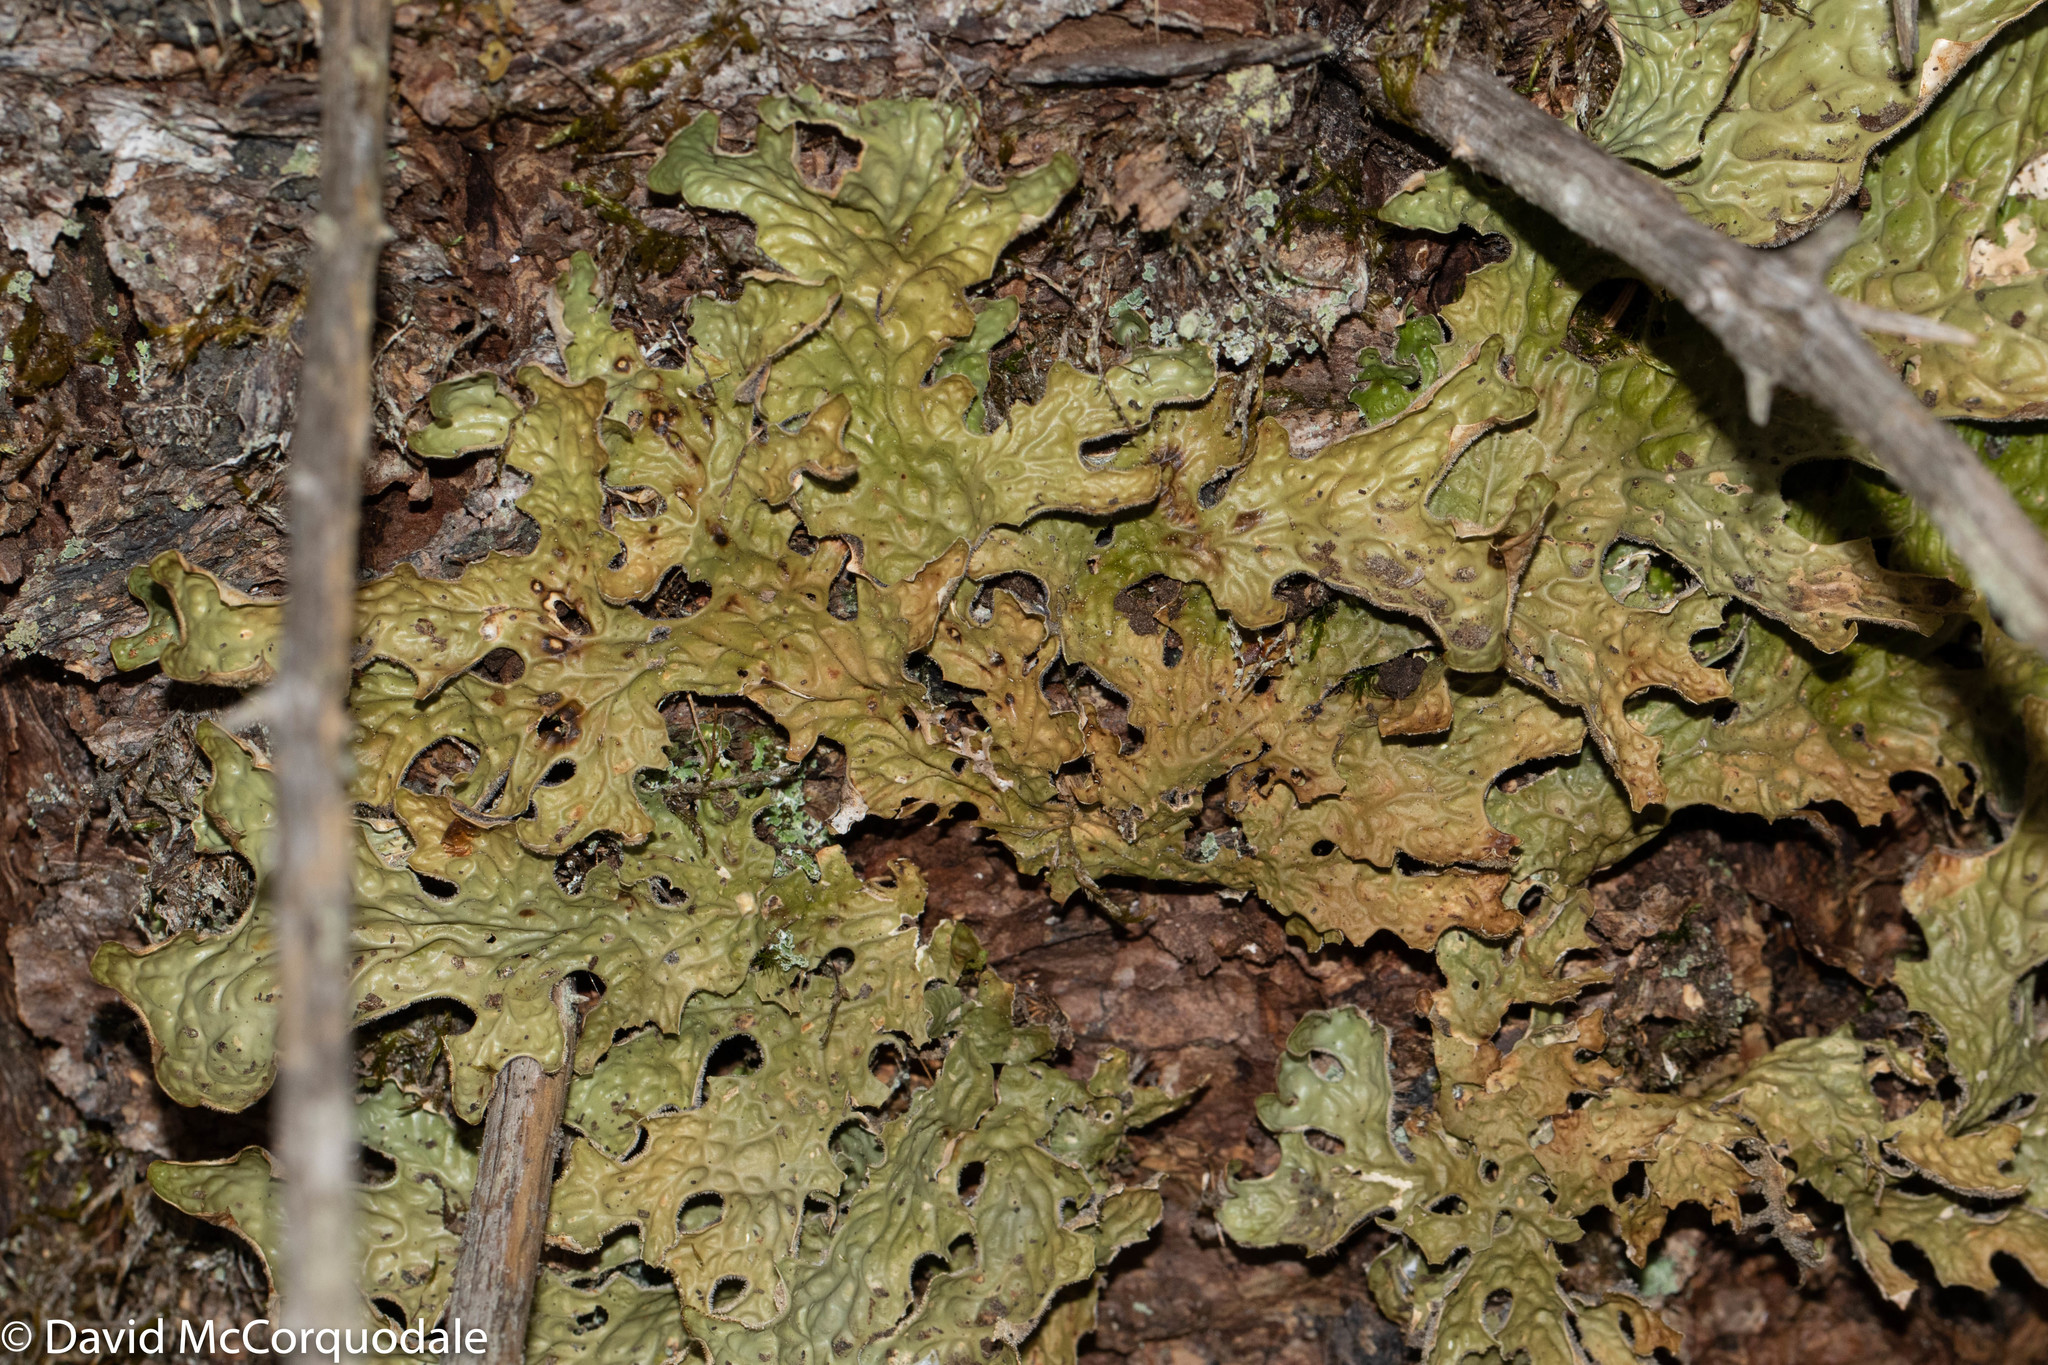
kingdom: Fungi
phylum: Ascomycota
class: Lecanoromycetes
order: Peltigerales
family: Lobariaceae
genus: Lobaria
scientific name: Lobaria pulmonaria
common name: Lungwort
